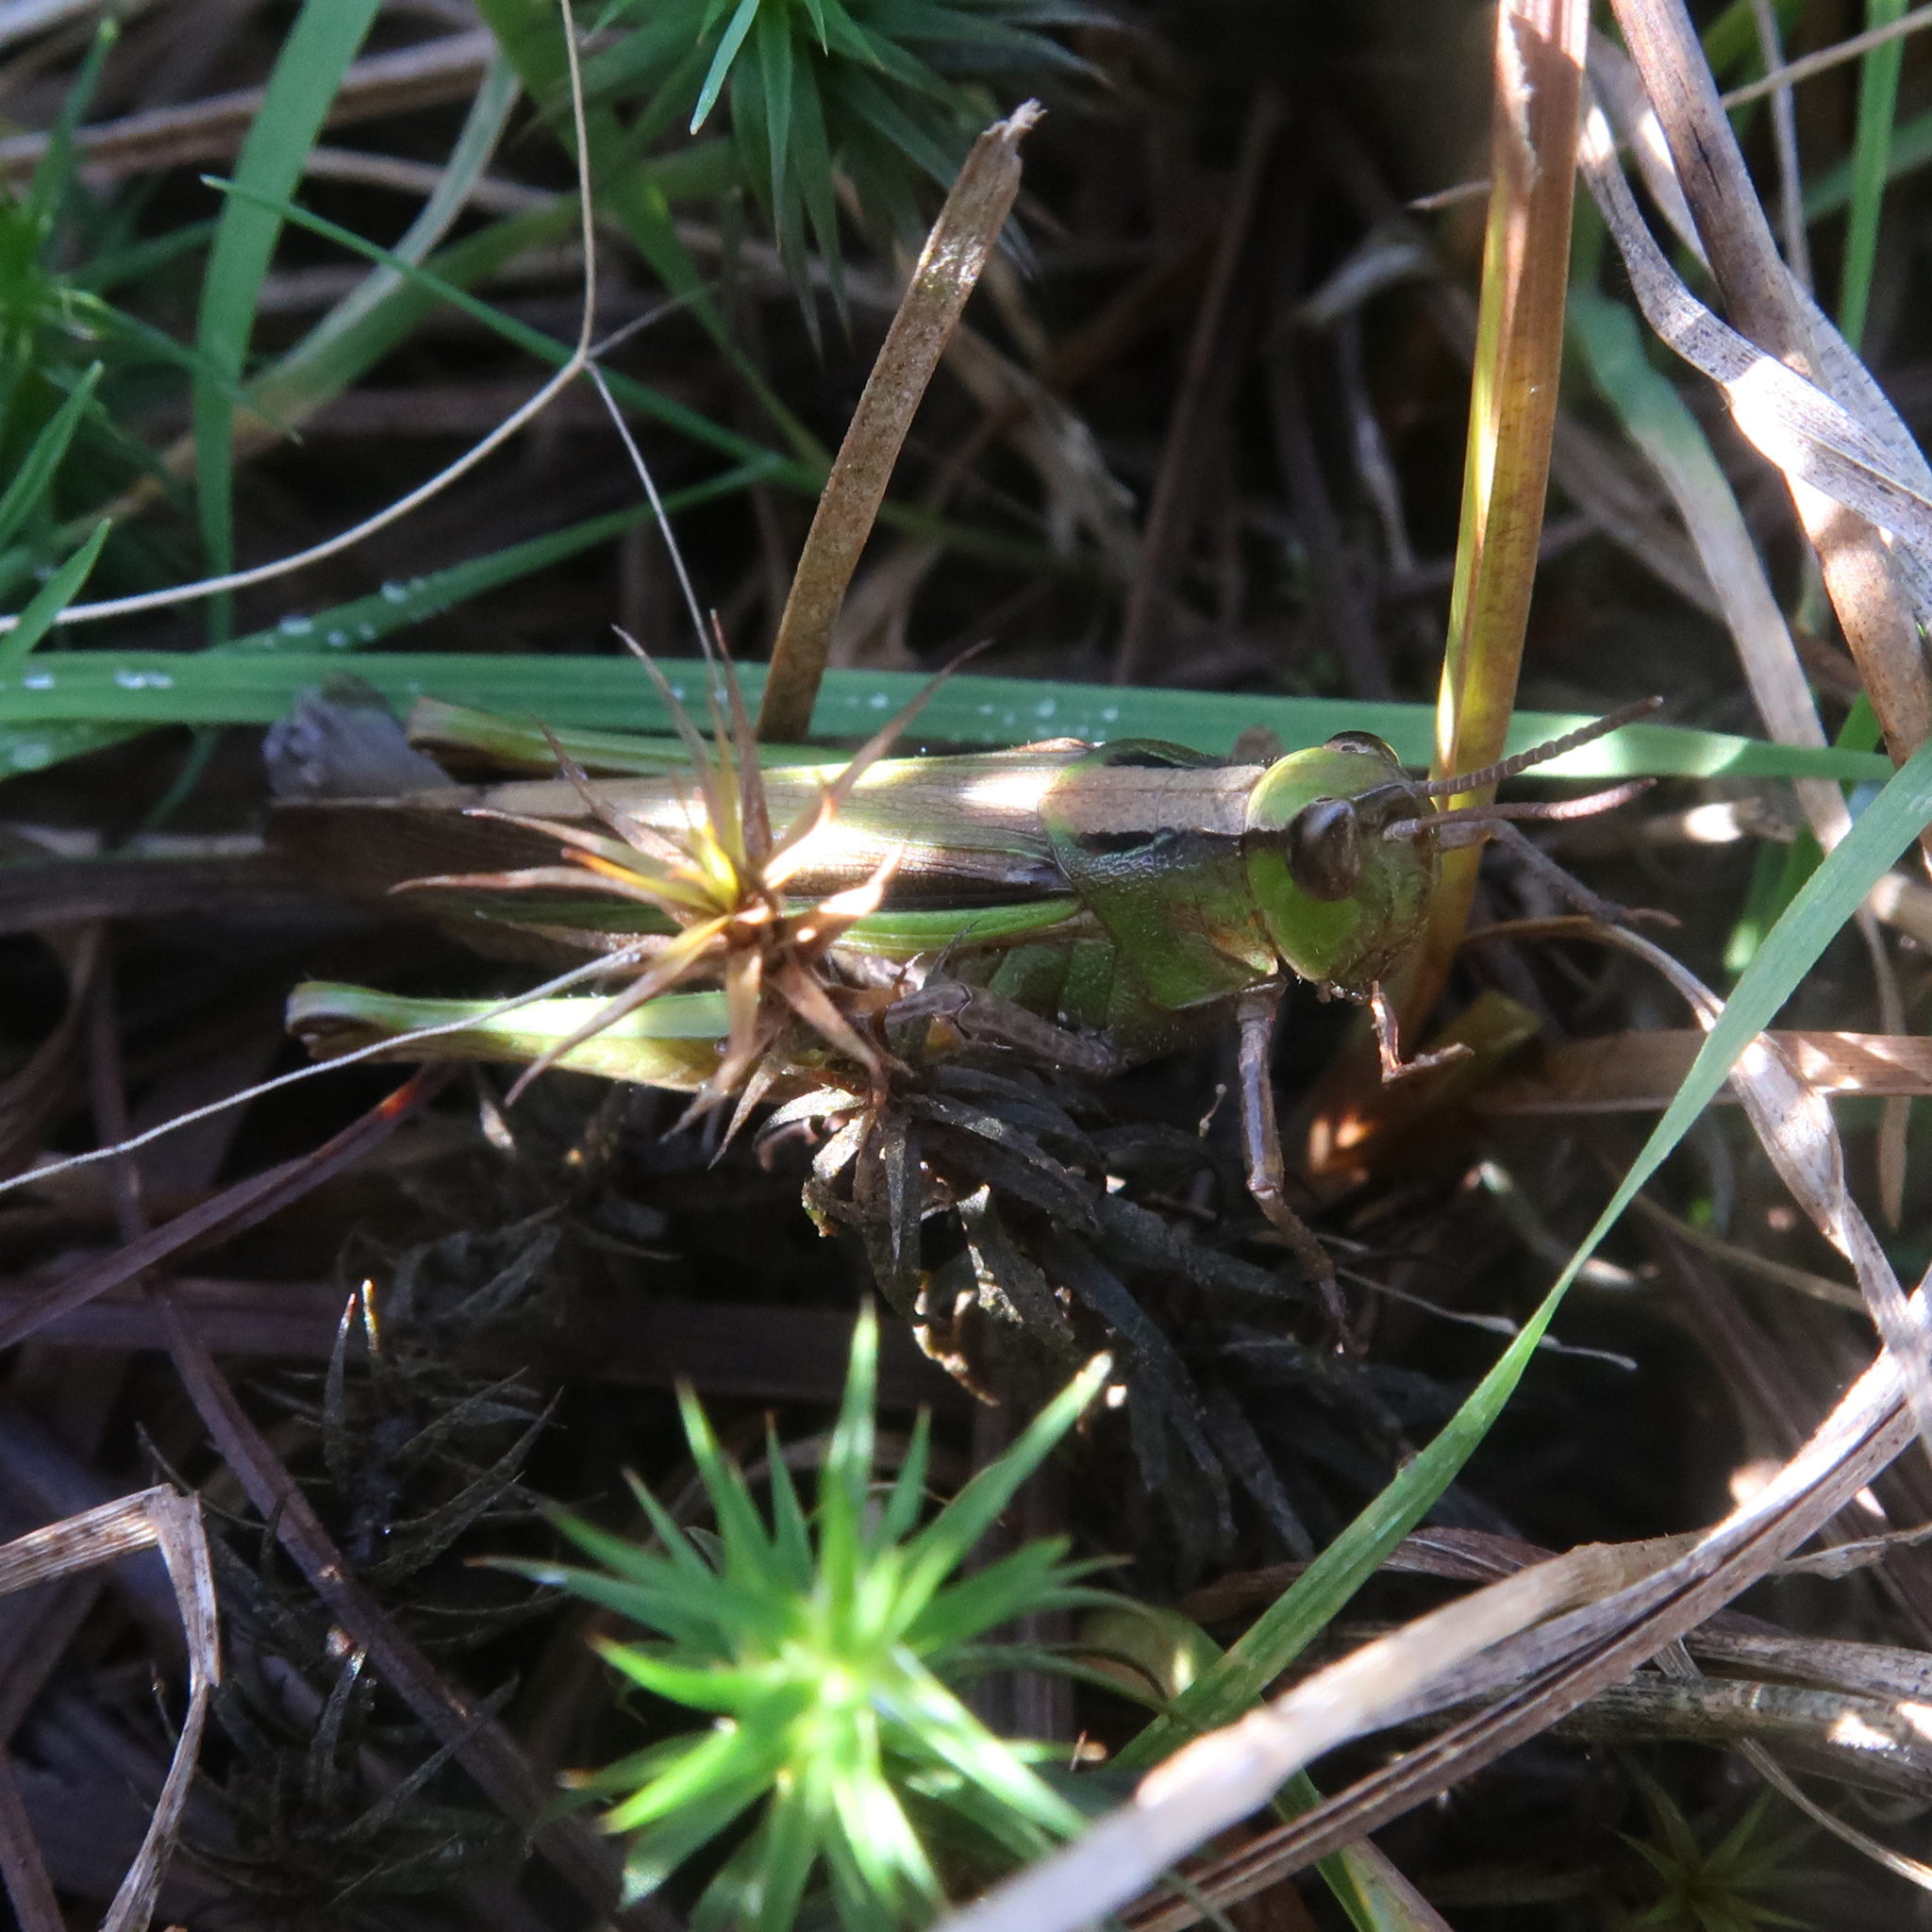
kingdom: Animalia
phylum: Arthropoda
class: Insecta
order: Orthoptera
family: Acrididae
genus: Schizobothrus
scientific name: Schizobothrus flavovittatus
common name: Disappearing grasshopper
